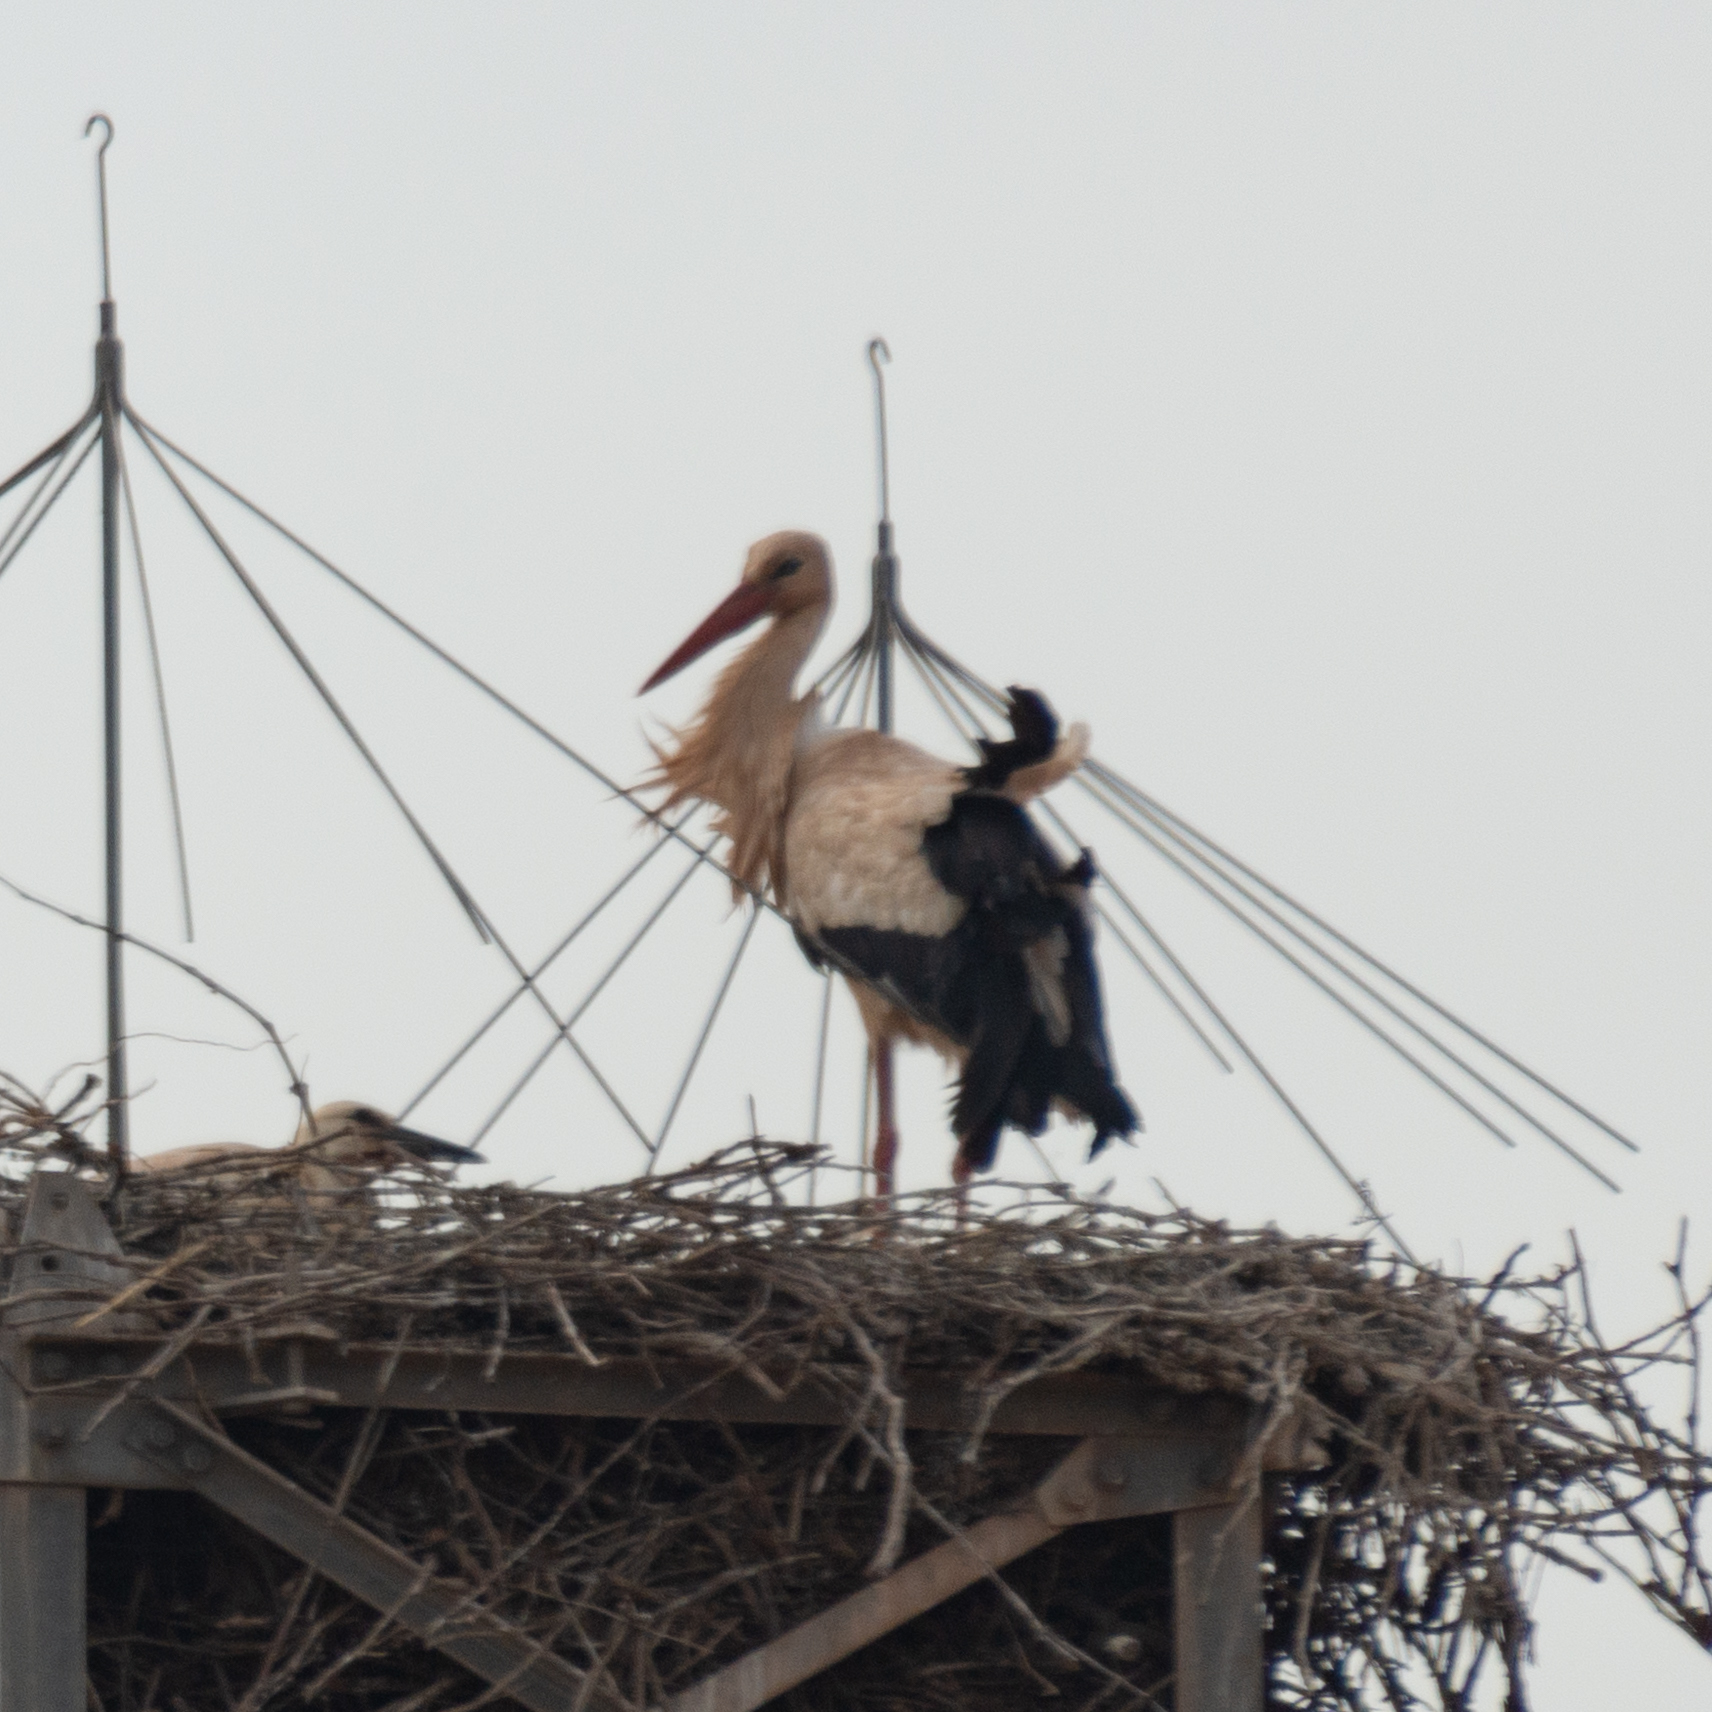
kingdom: Animalia
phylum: Chordata
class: Aves
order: Ciconiiformes
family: Ciconiidae
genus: Ciconia
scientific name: Ciconia ciconia
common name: White stork
